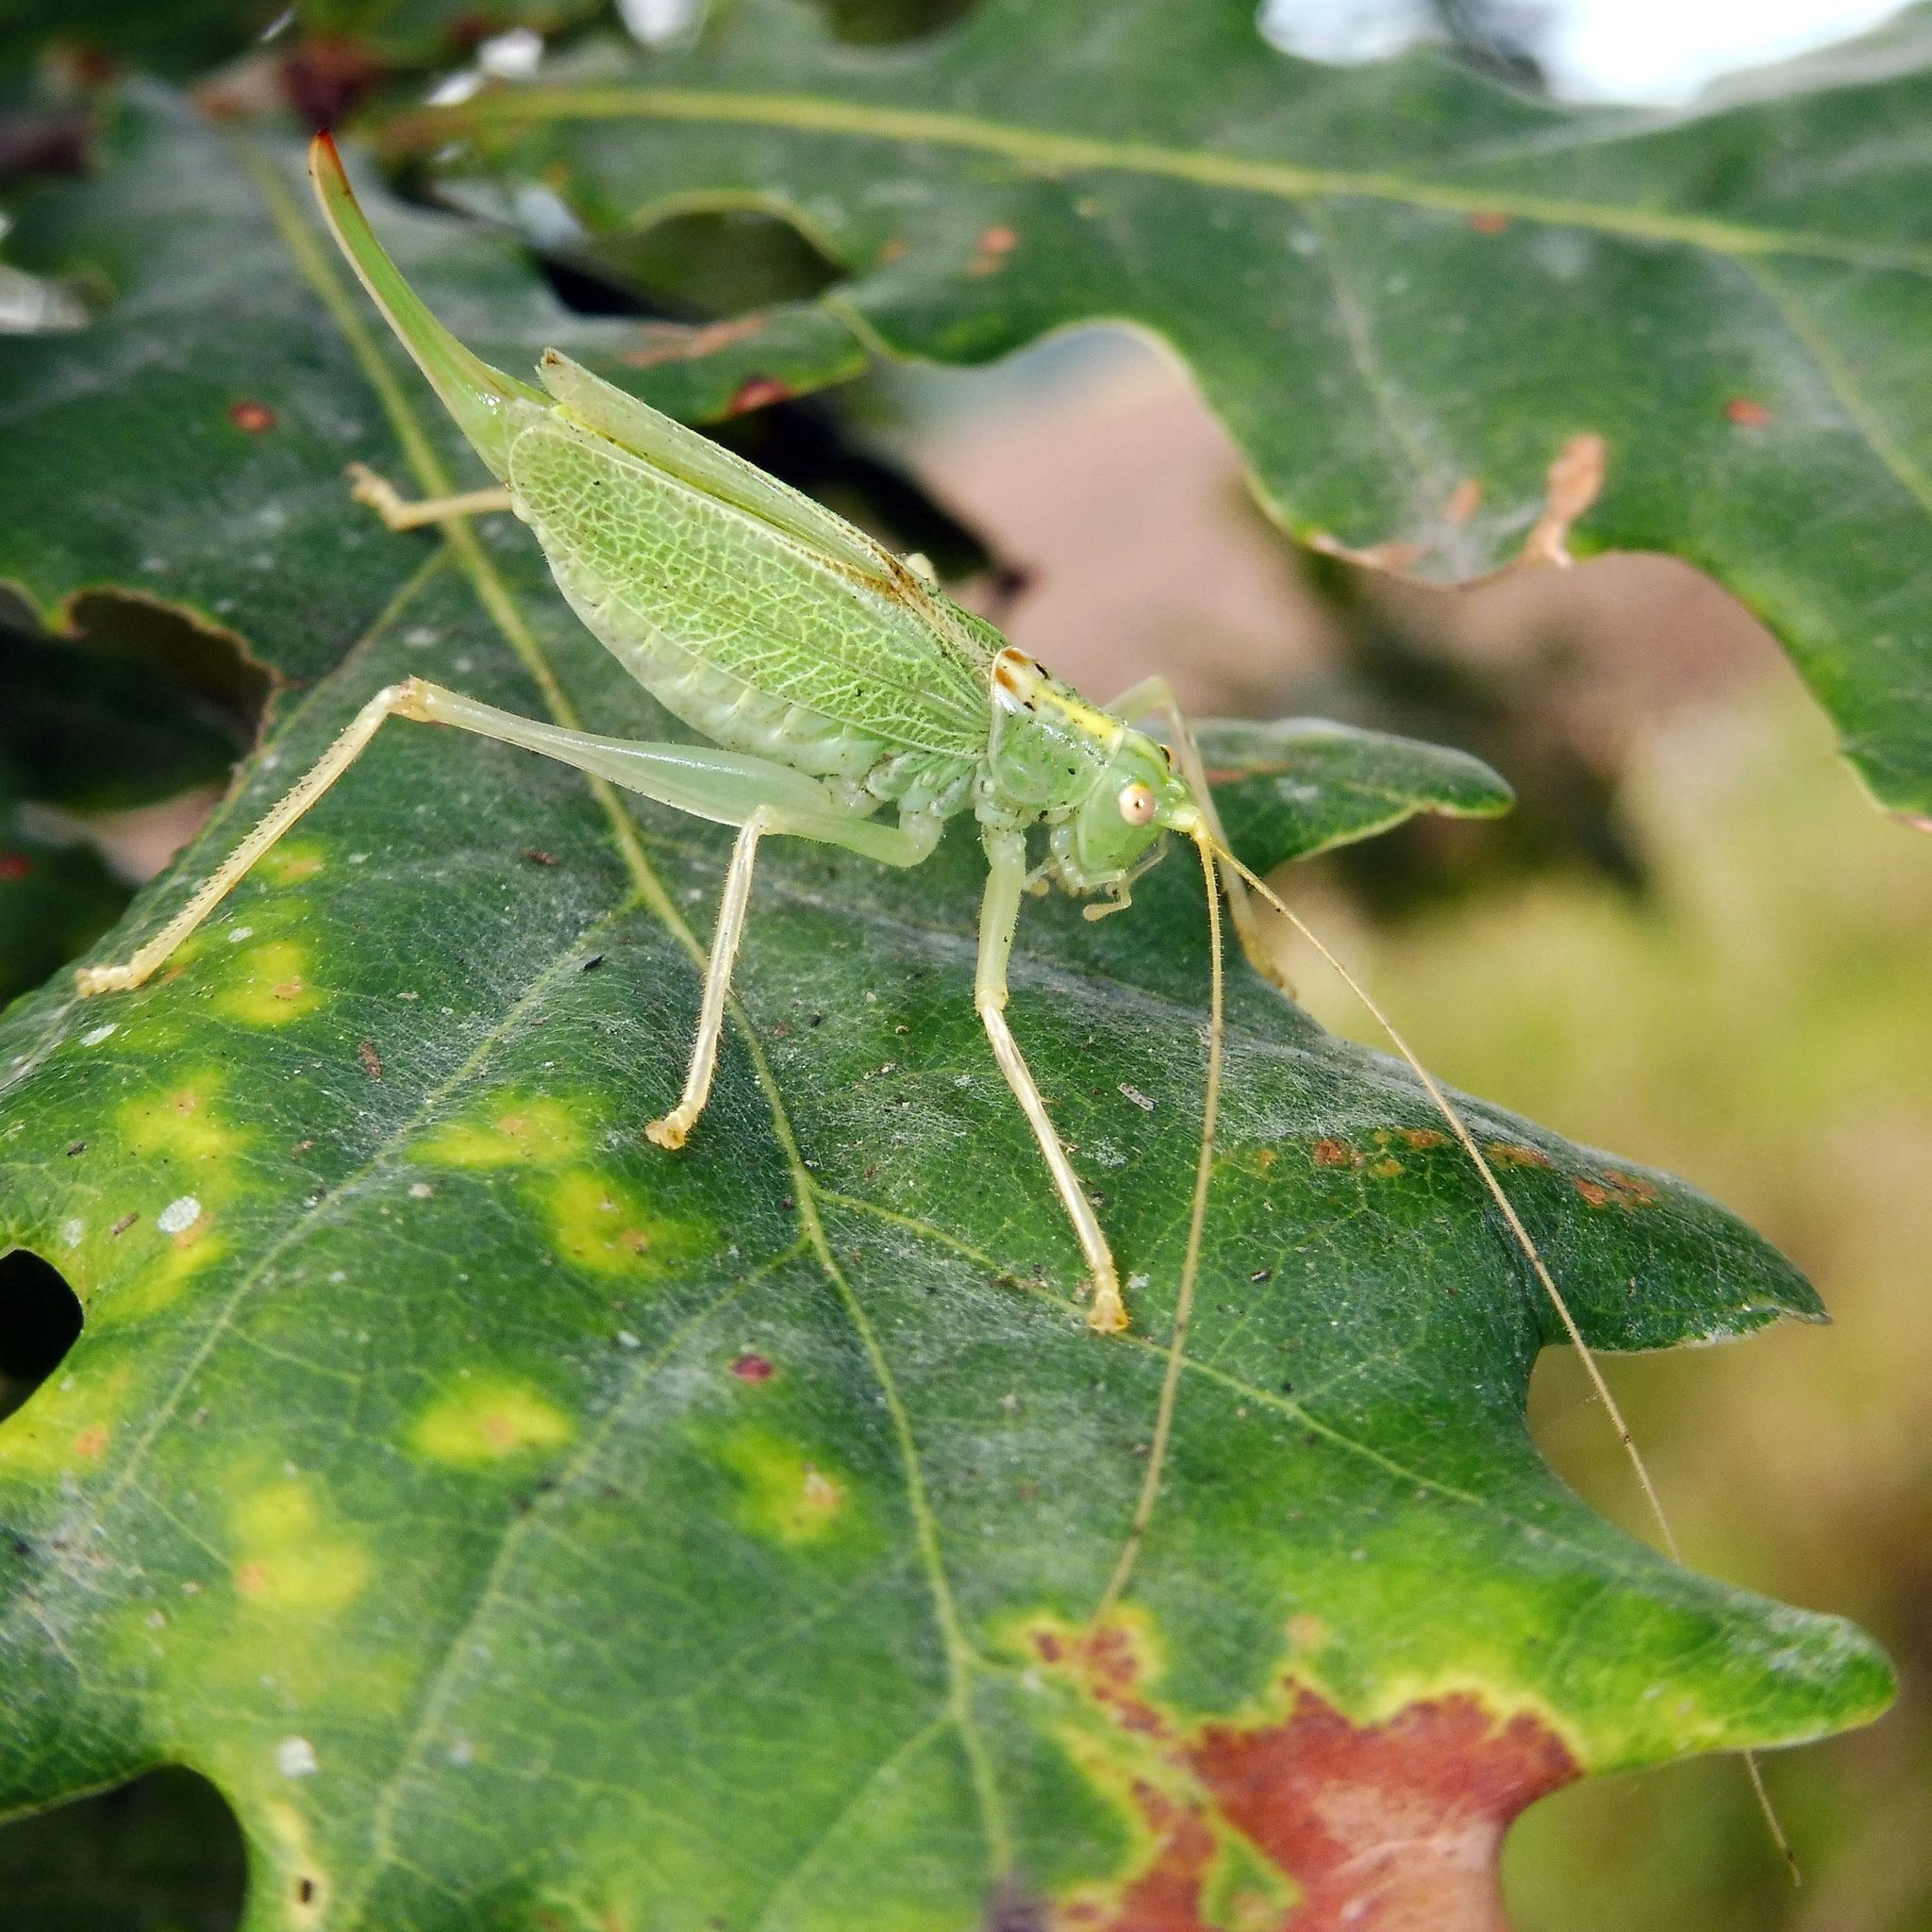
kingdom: Animalia
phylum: Arthropoda
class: Insecta
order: Orthoptera
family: Tettigoniidae
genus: Meconema
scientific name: Meconema thalassinum
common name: Oak bush-cricket
